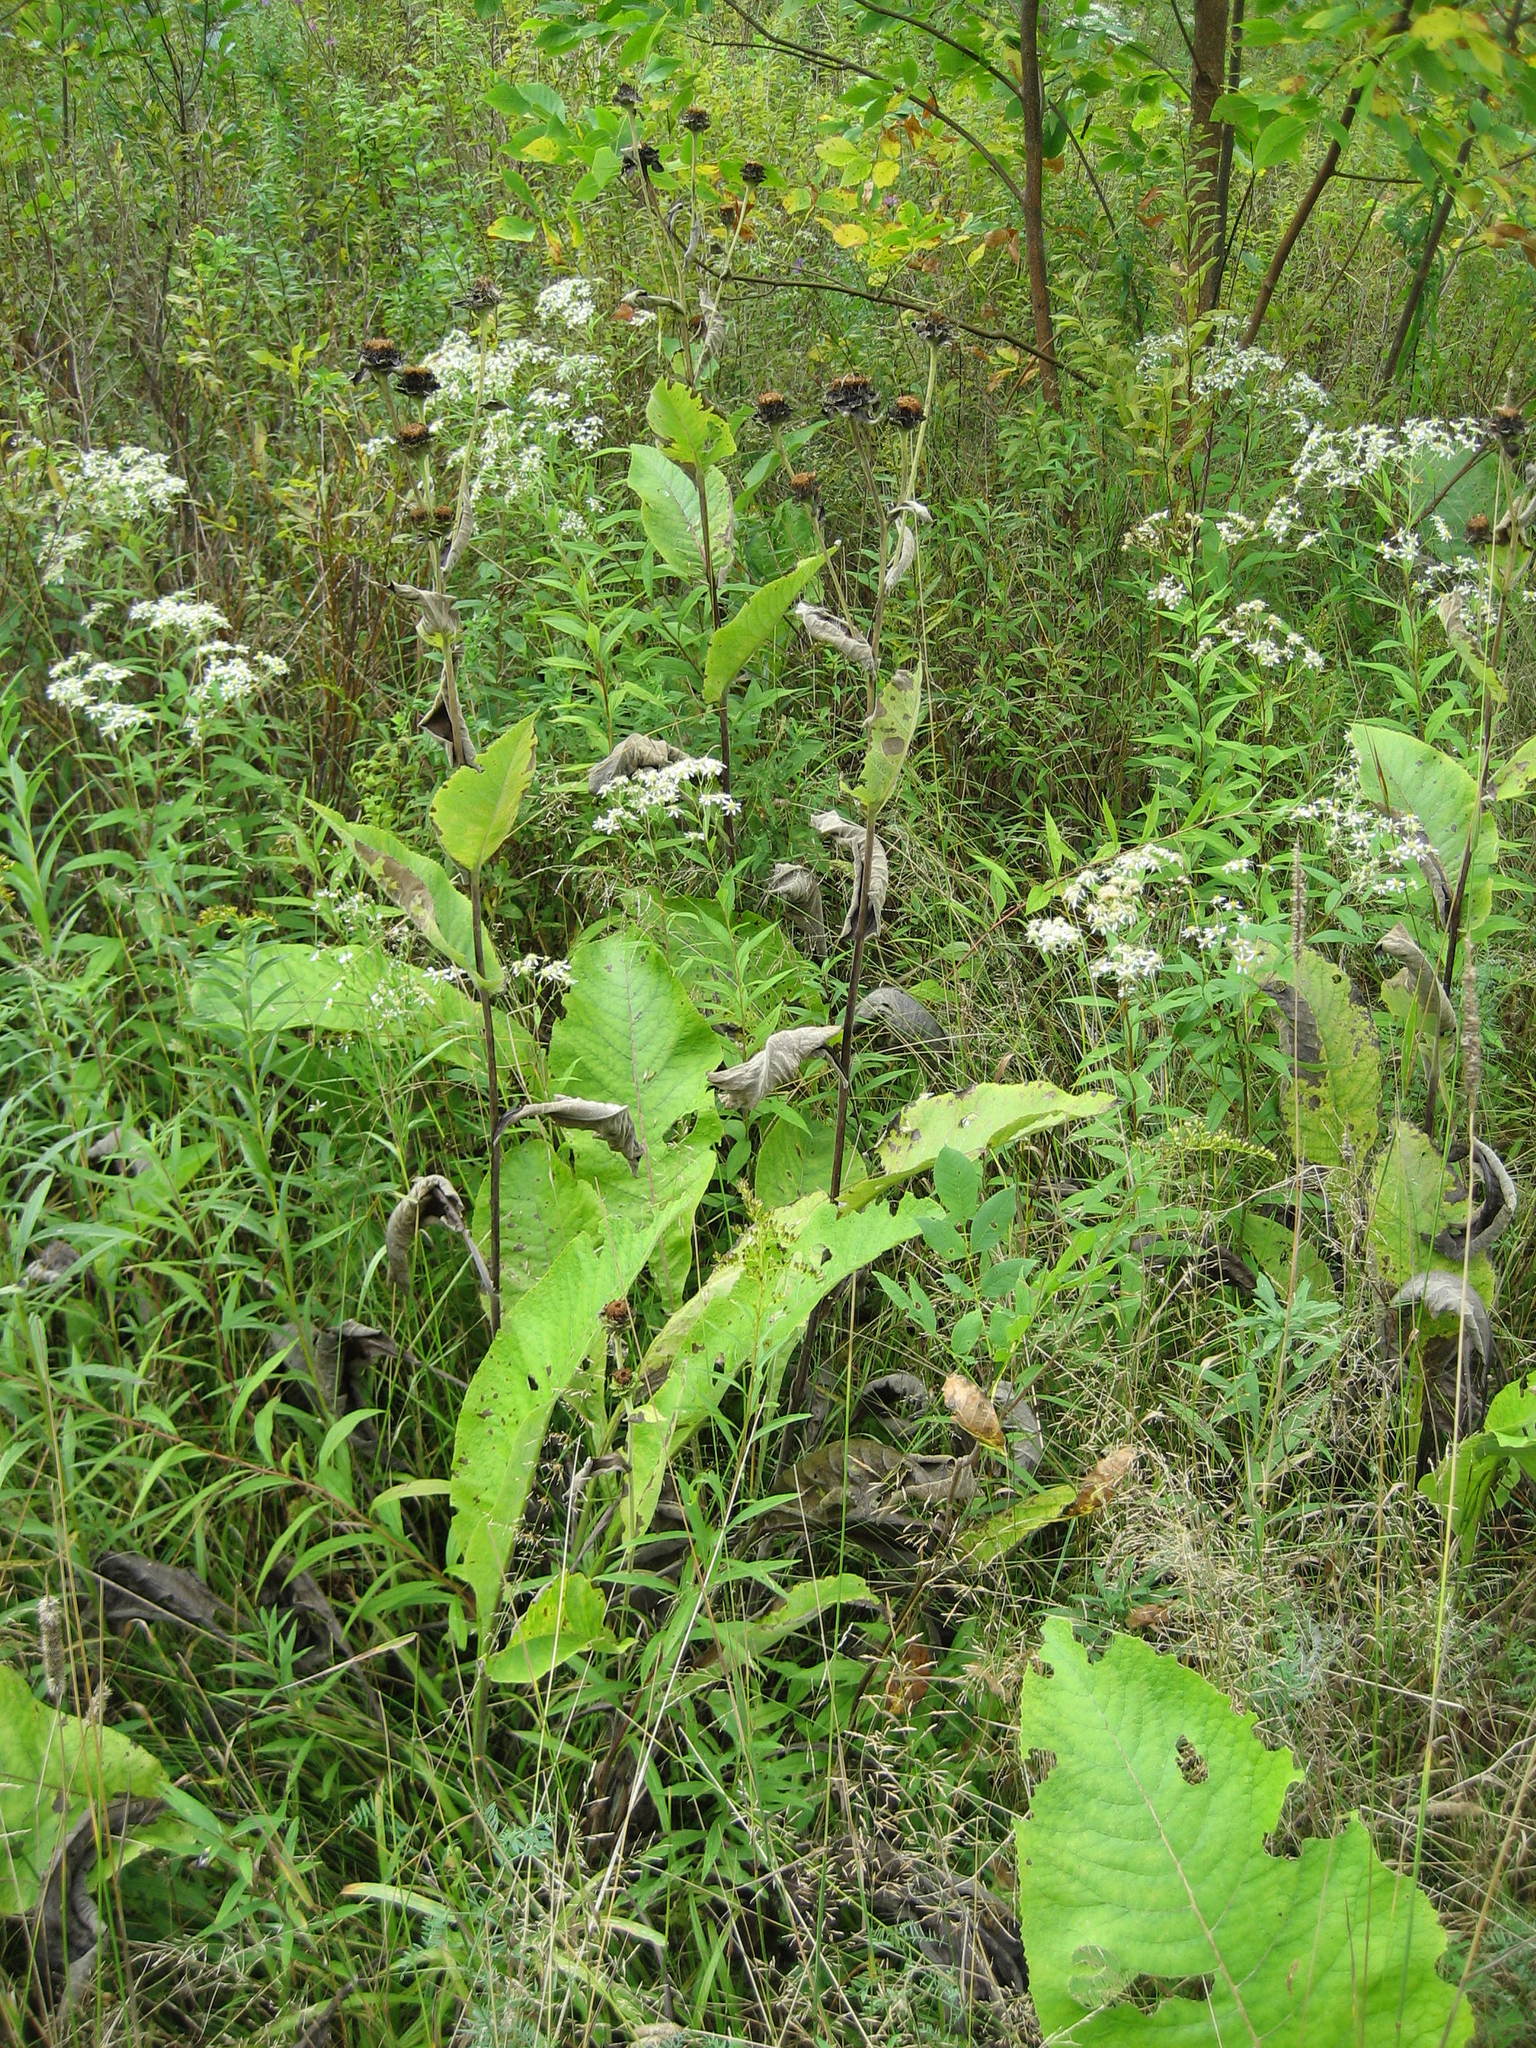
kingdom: Plantae
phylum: Tracheophyta
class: Magnoliopsida
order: Asterales
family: Asteraceae
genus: Inula
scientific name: Inula helenium
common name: Elecampane
